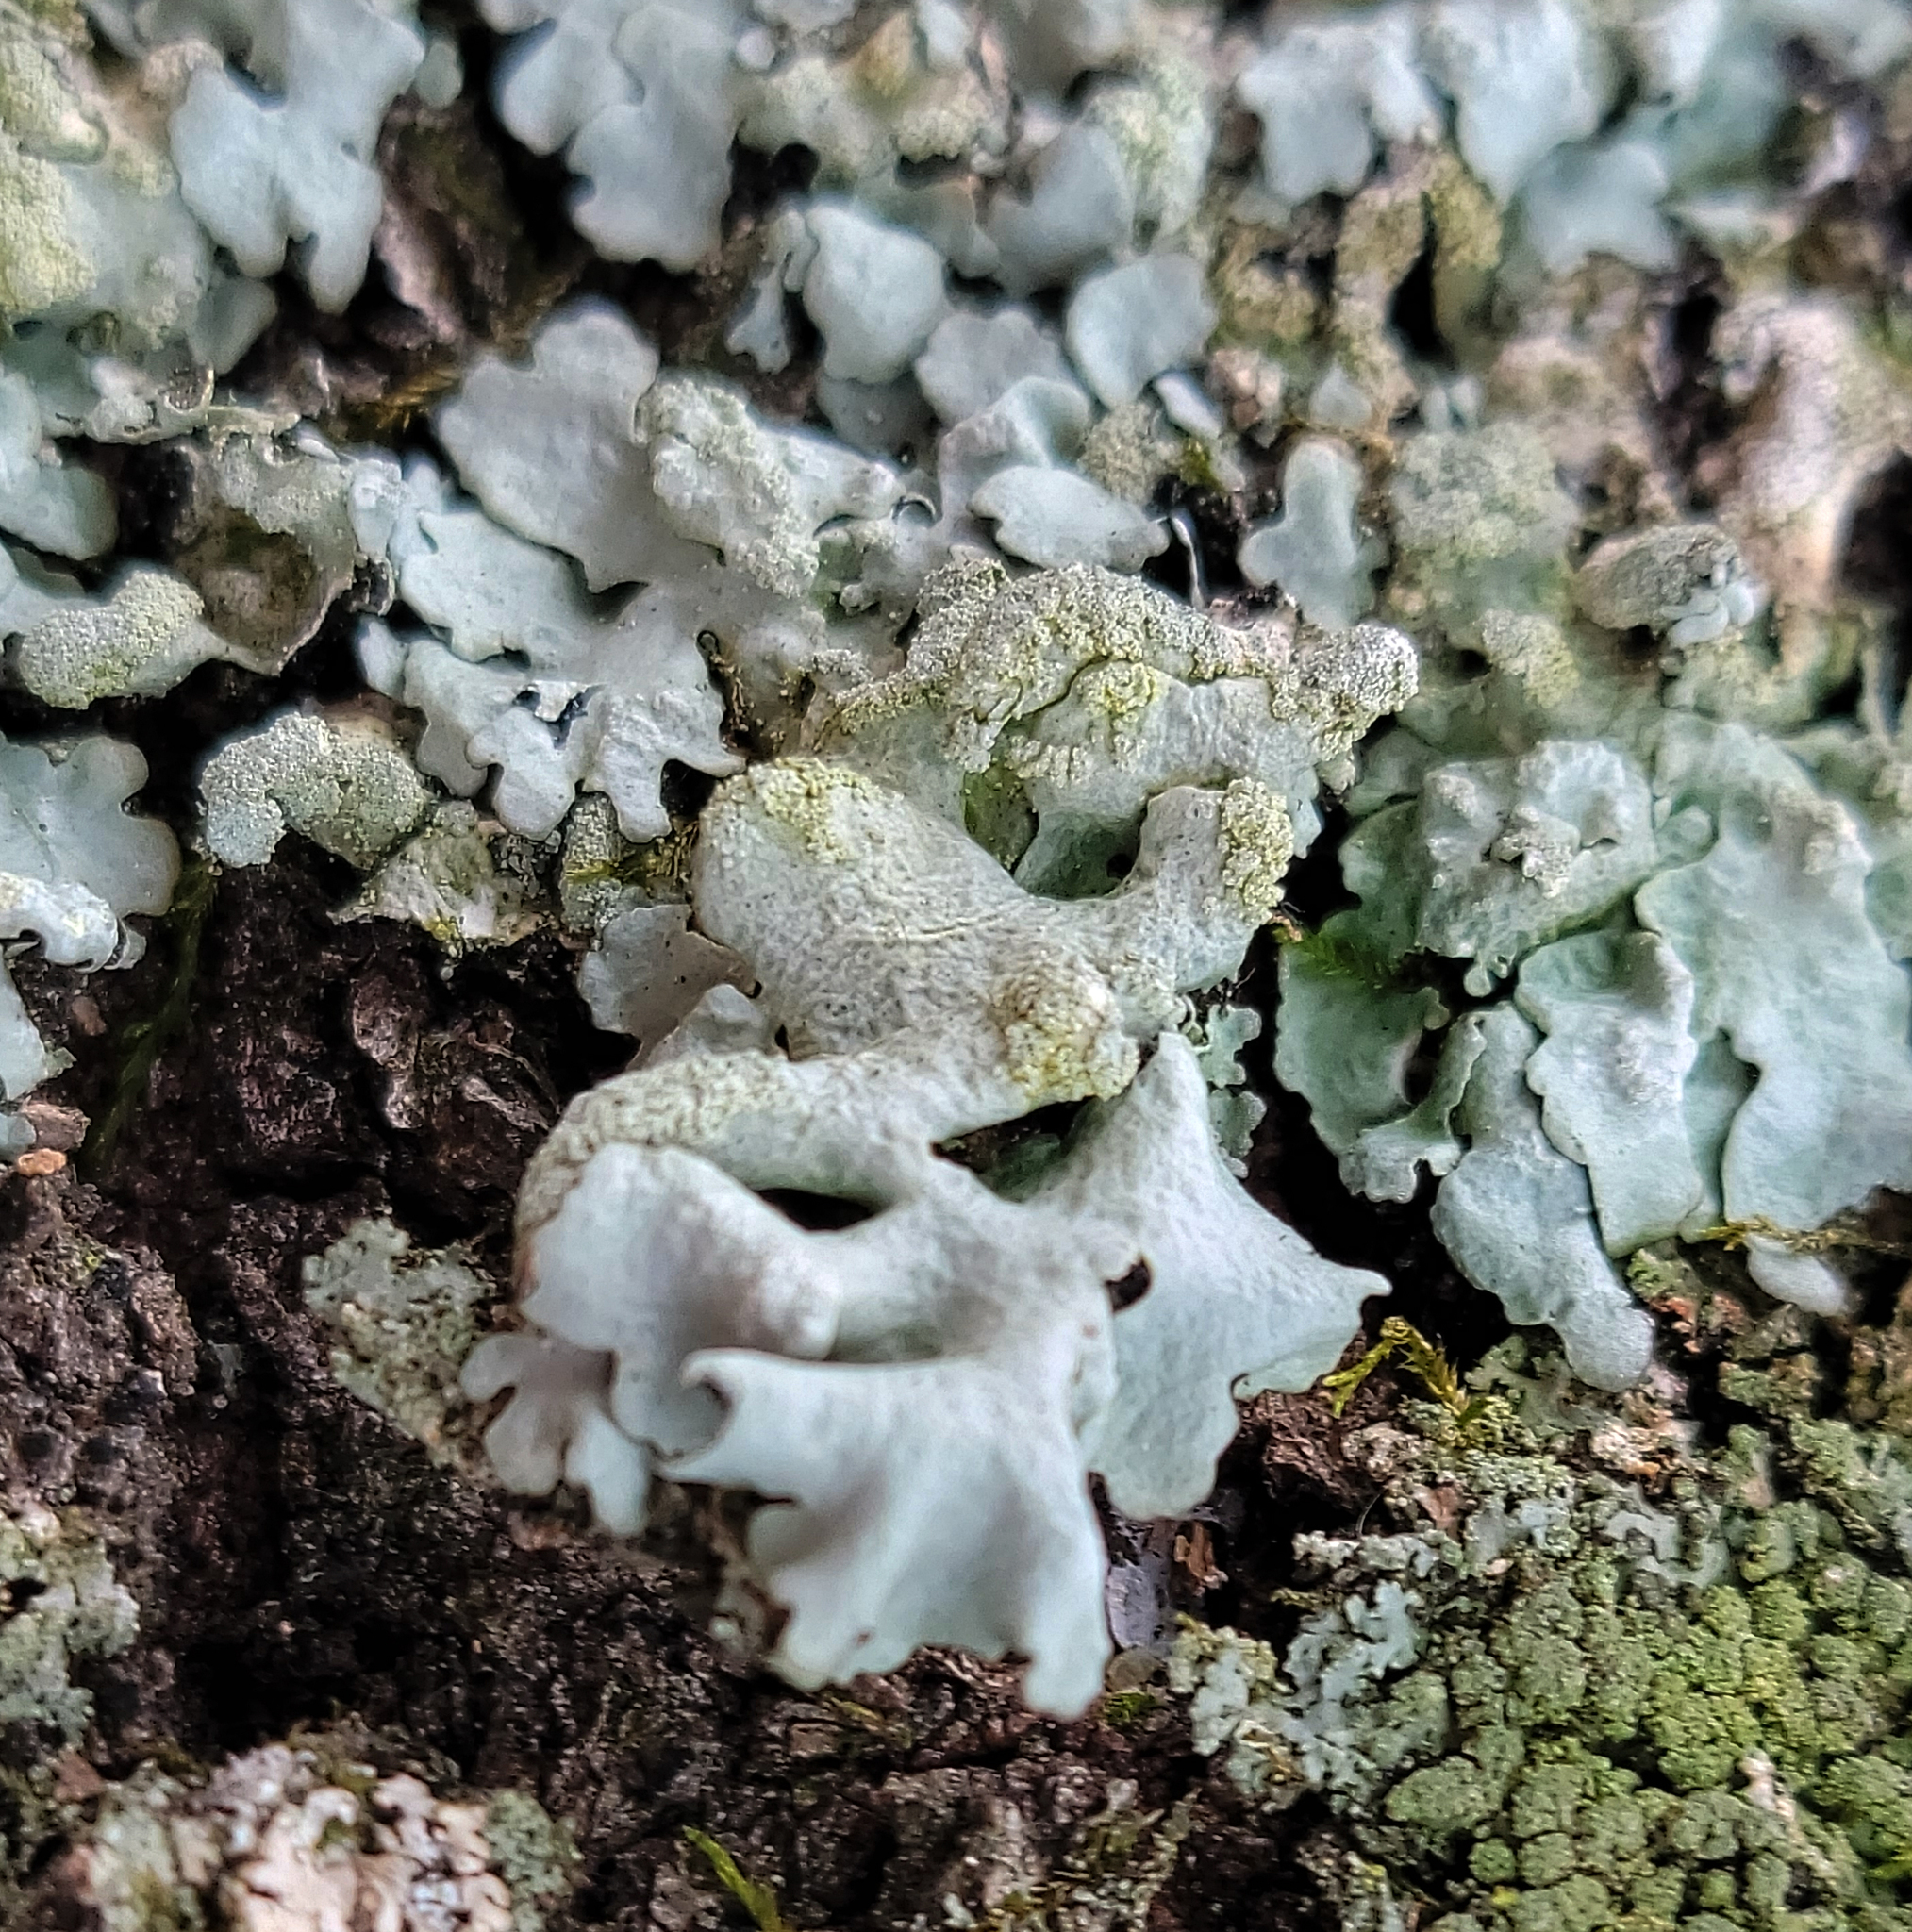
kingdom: Fungi
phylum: Ascomycota
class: Lecanoromycetes
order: Lecanorales
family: Parmeliaceae
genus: Myelochroa
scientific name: Myelochroa aurulenta
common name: Powdery axil-bristle lichen
